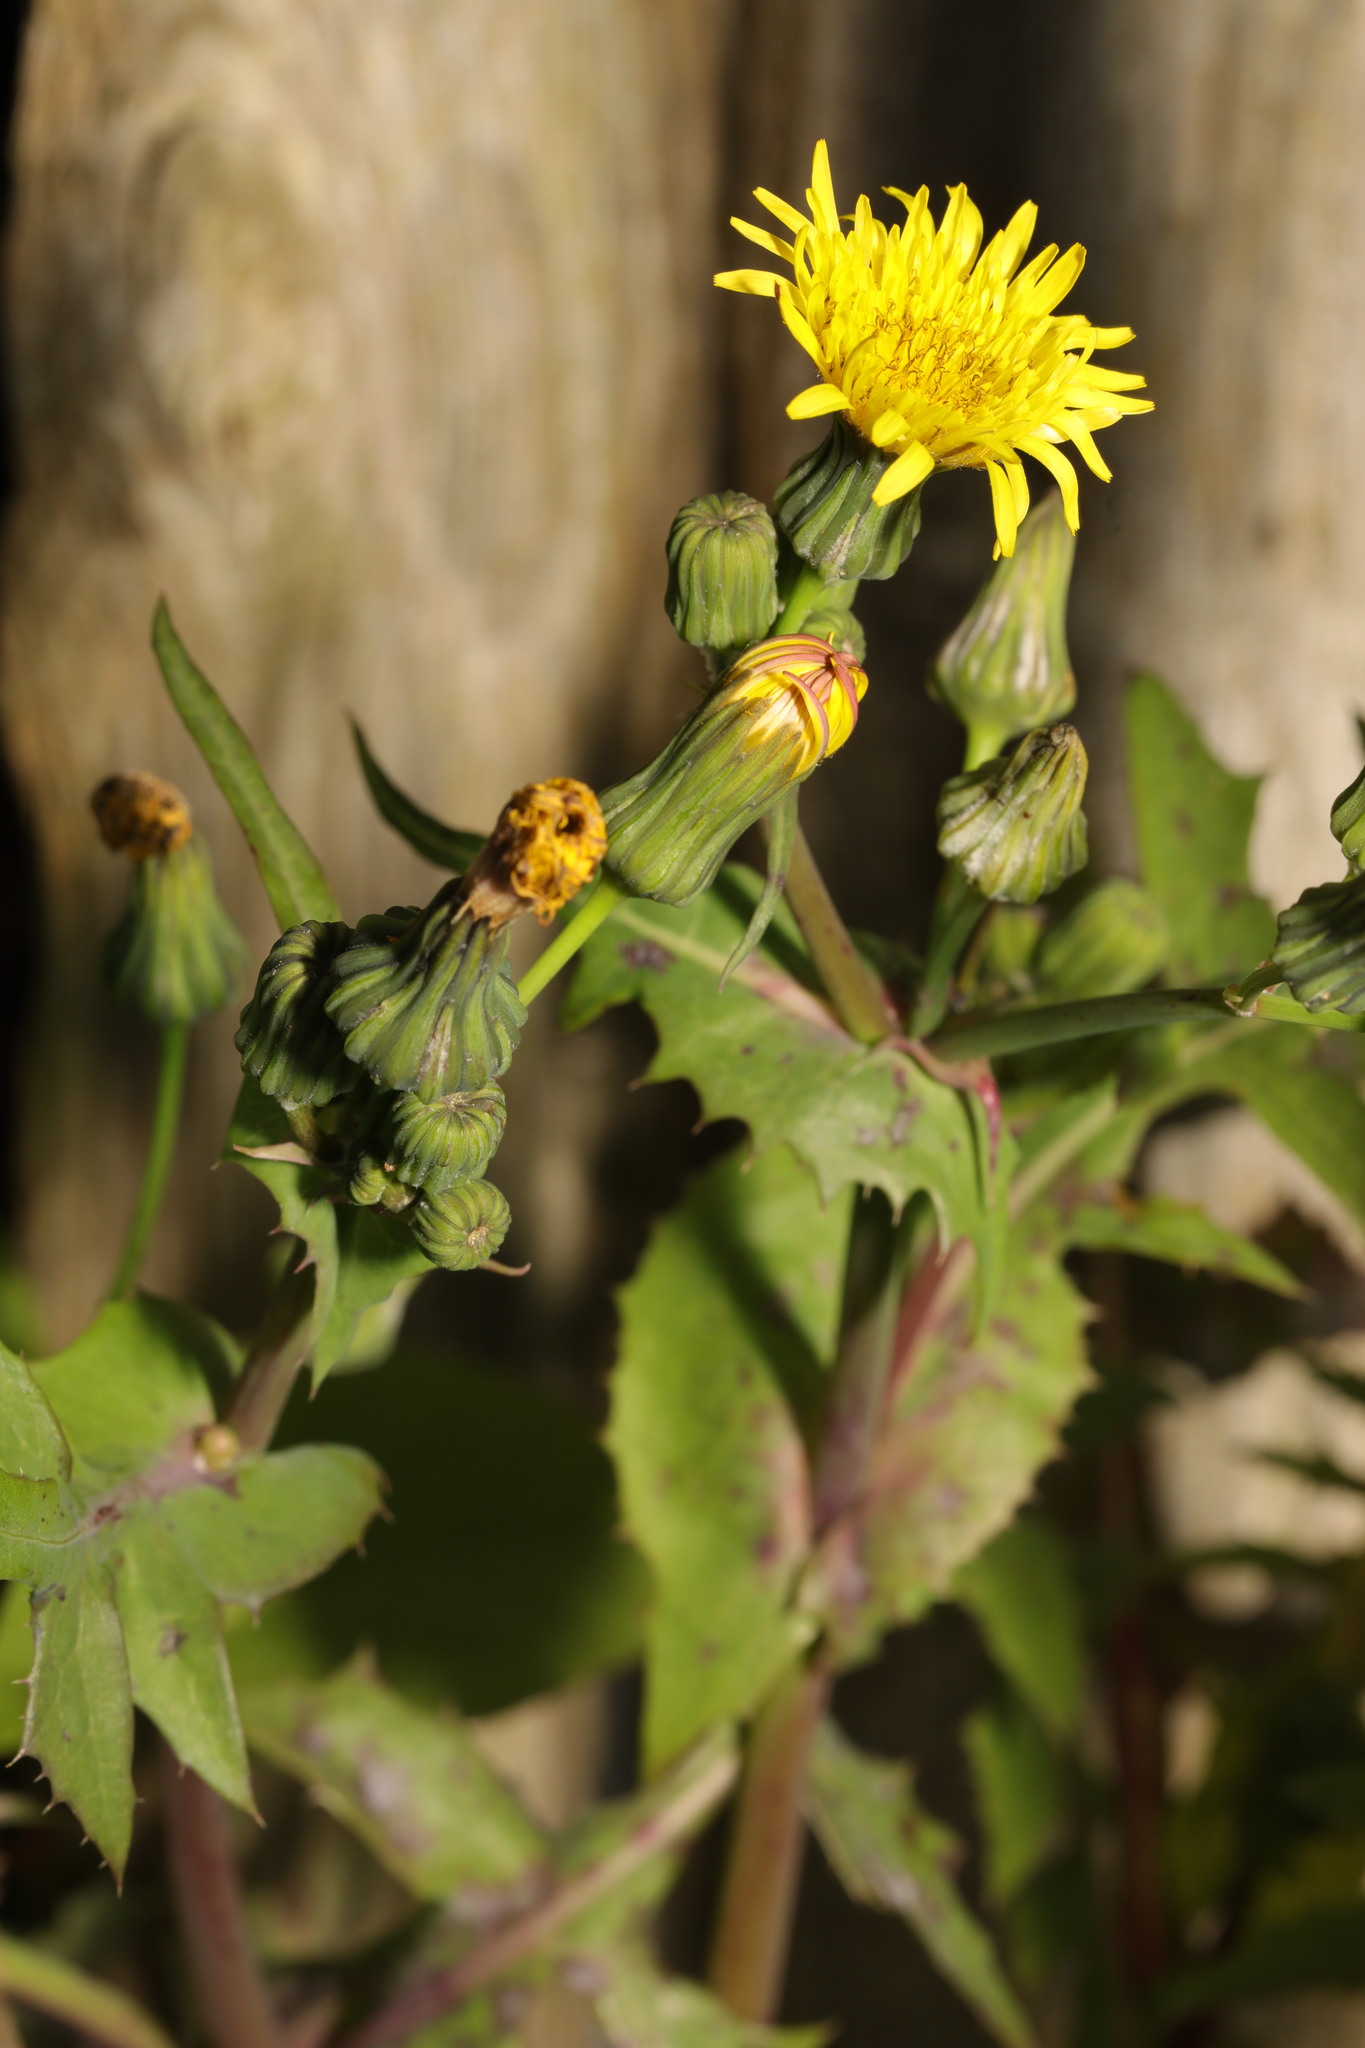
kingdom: Plantae
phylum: Tracheophyta
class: Magnoliopsida
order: Asterales
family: Asteraceae
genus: Sonchus
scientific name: Sonchus oleraceus
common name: Common sowthistle
